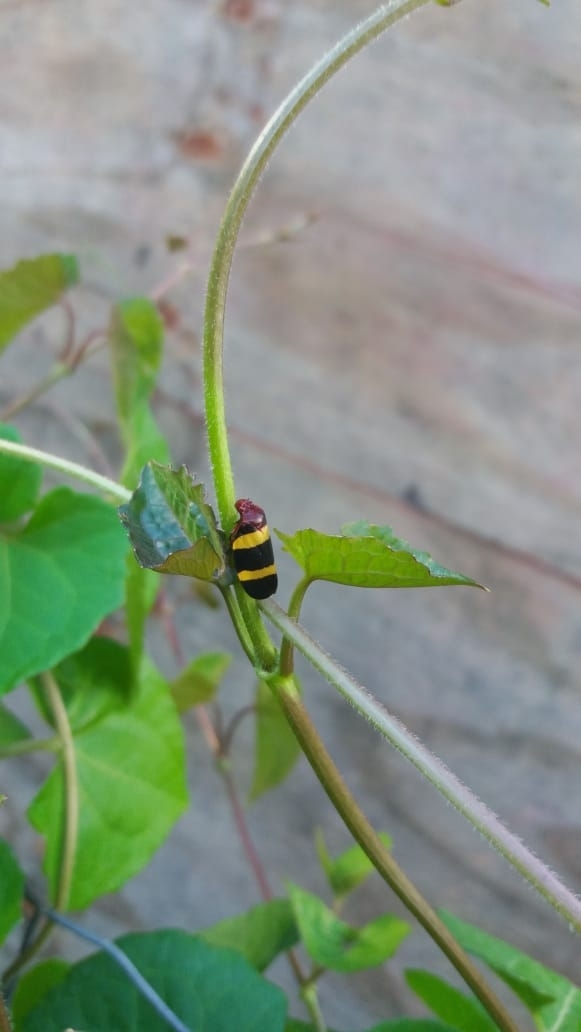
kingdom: Animalia
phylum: Arthropoda
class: Insecta
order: Hemiptera
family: Cercopidae
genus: Sphenorhina
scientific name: Sphenorhina rubra
